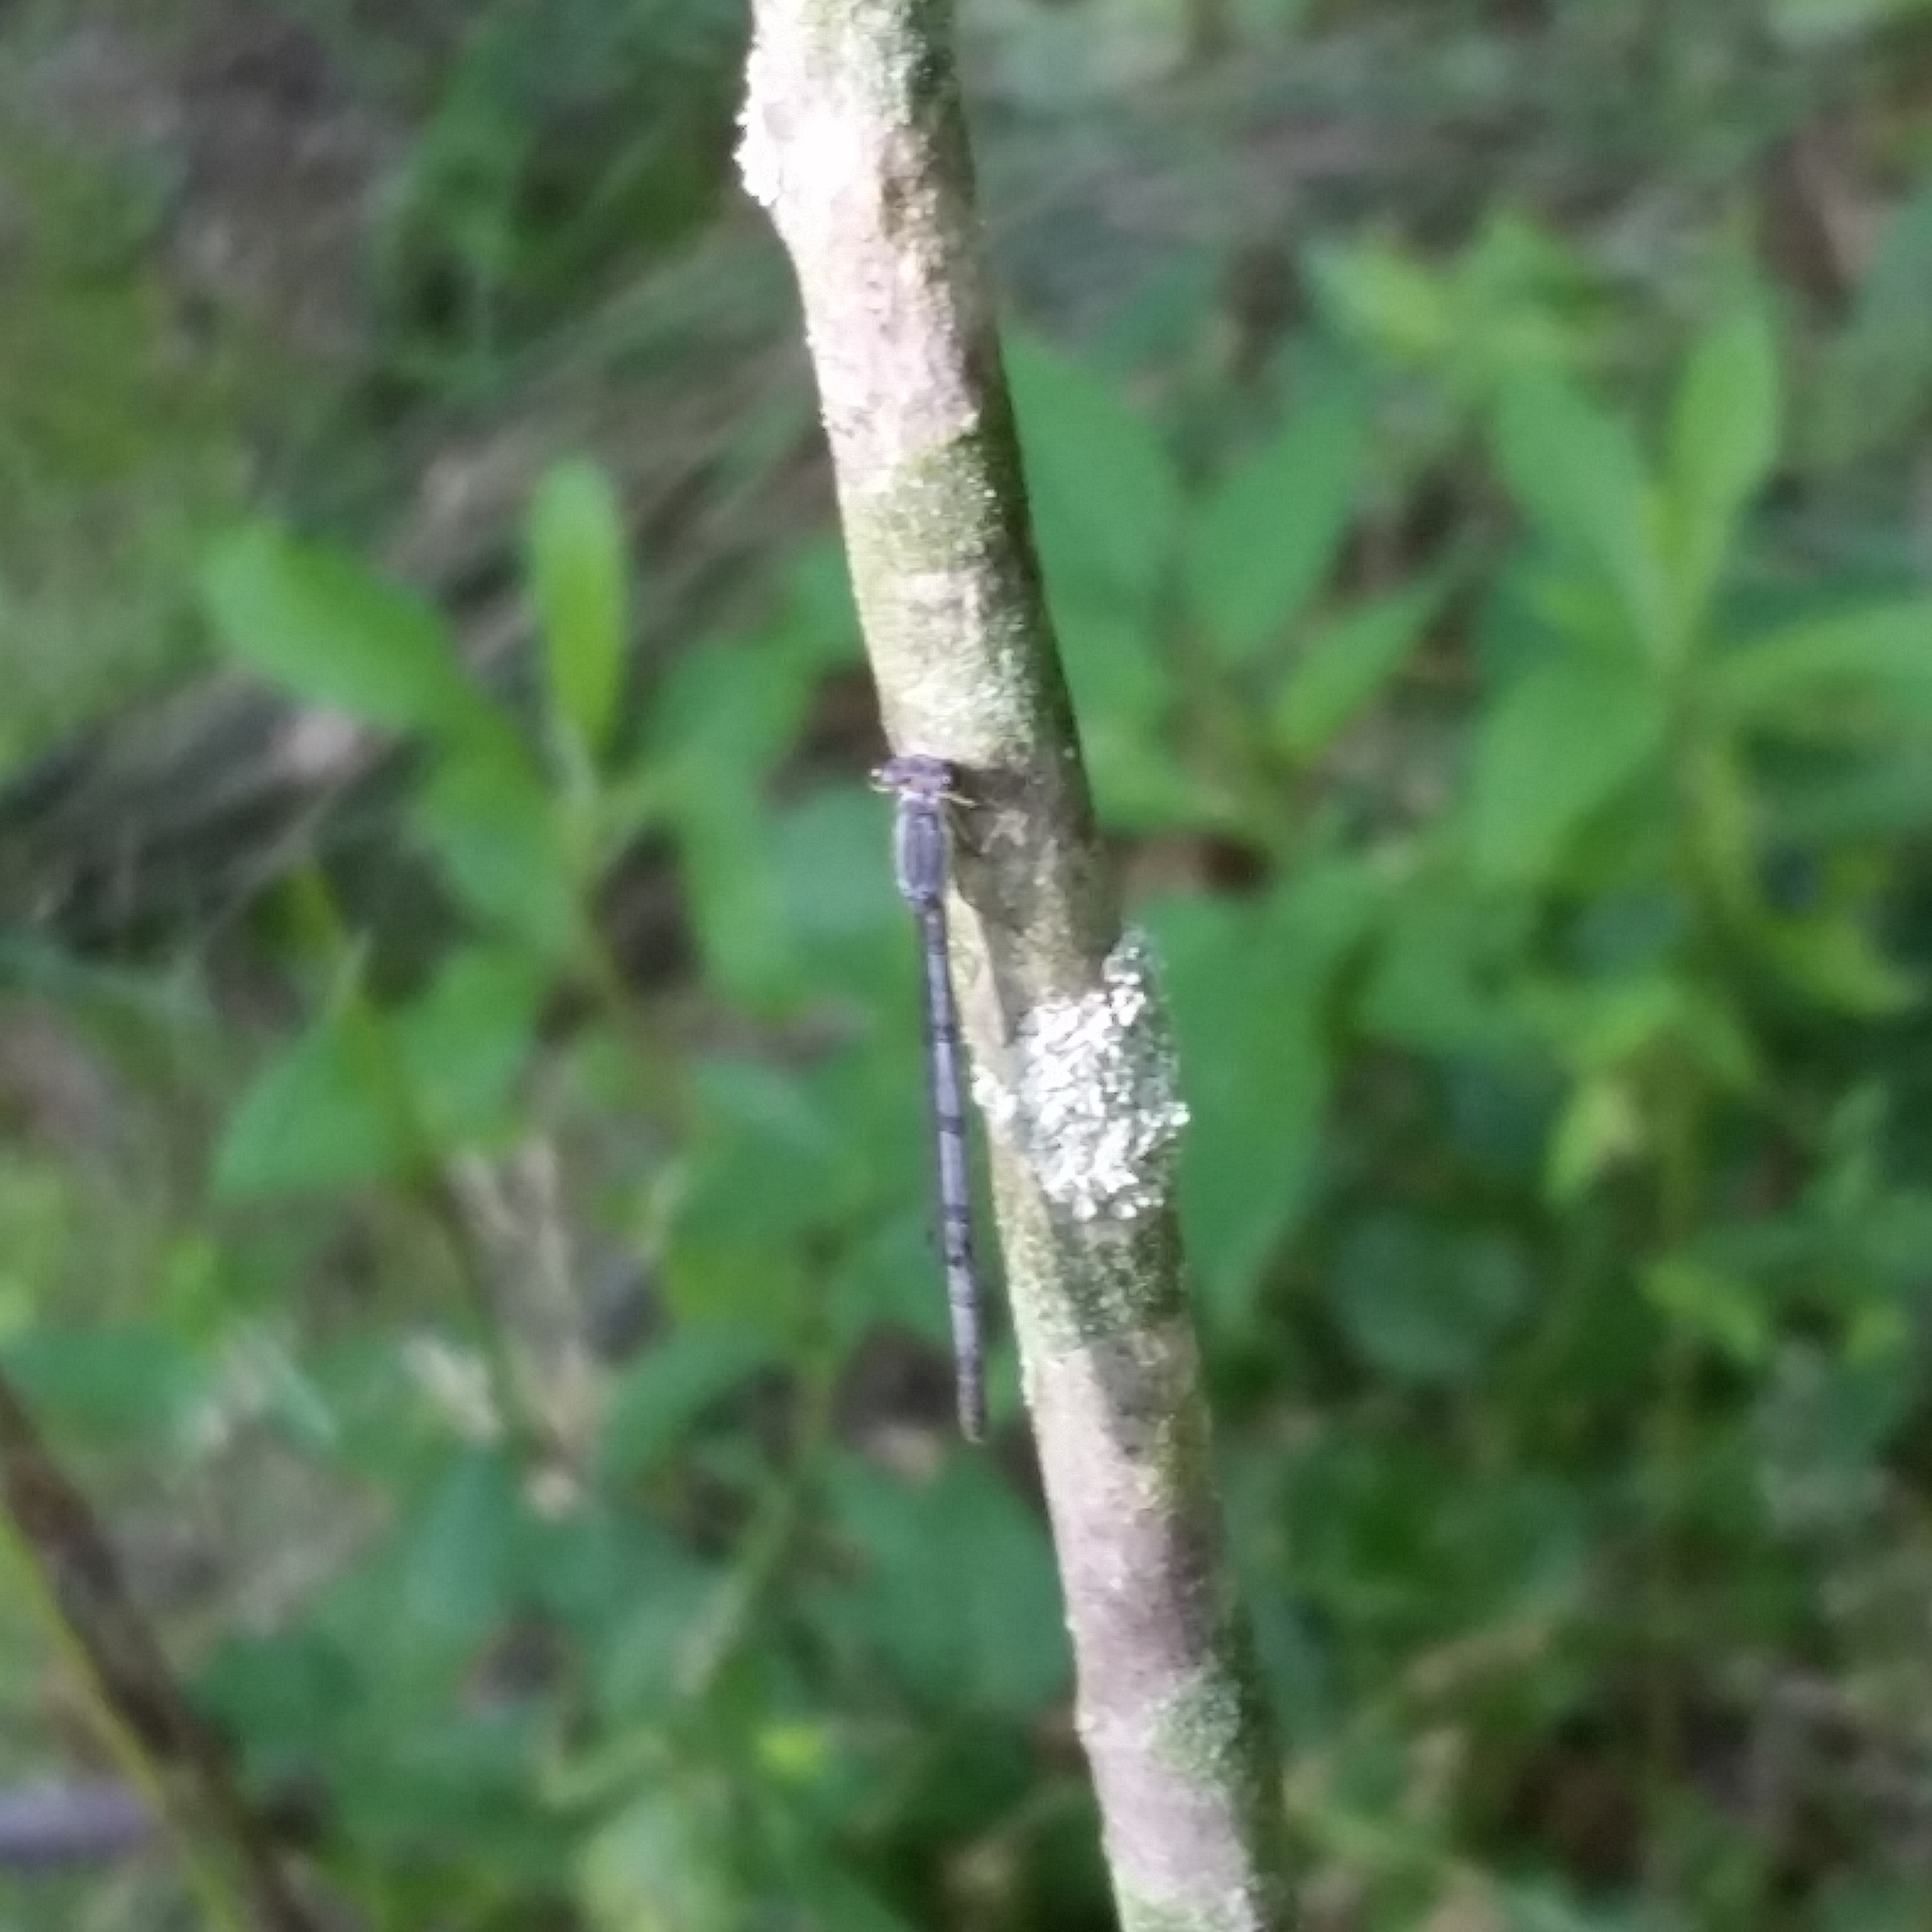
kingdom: Animalia
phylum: Arthropoda
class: Insecta
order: Odonata
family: Coenagrionidae
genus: Ischnura
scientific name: Ischnura verticalis
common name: Eastern forktail
